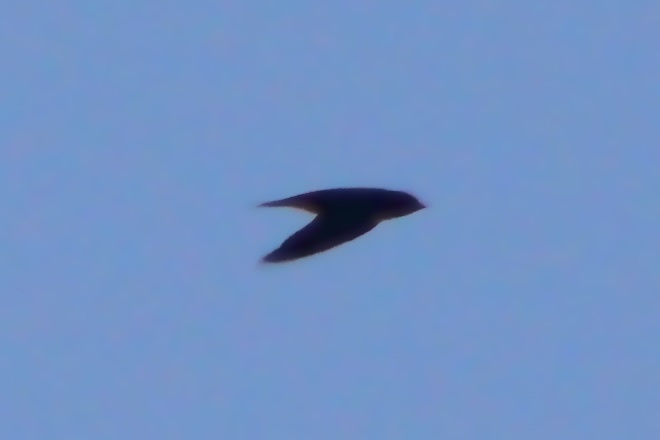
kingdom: Animalia
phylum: Chordata
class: Aves
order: Apodiformes
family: Apodidae
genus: Chaetura
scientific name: Chaetura pelagica
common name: Chimney swift
